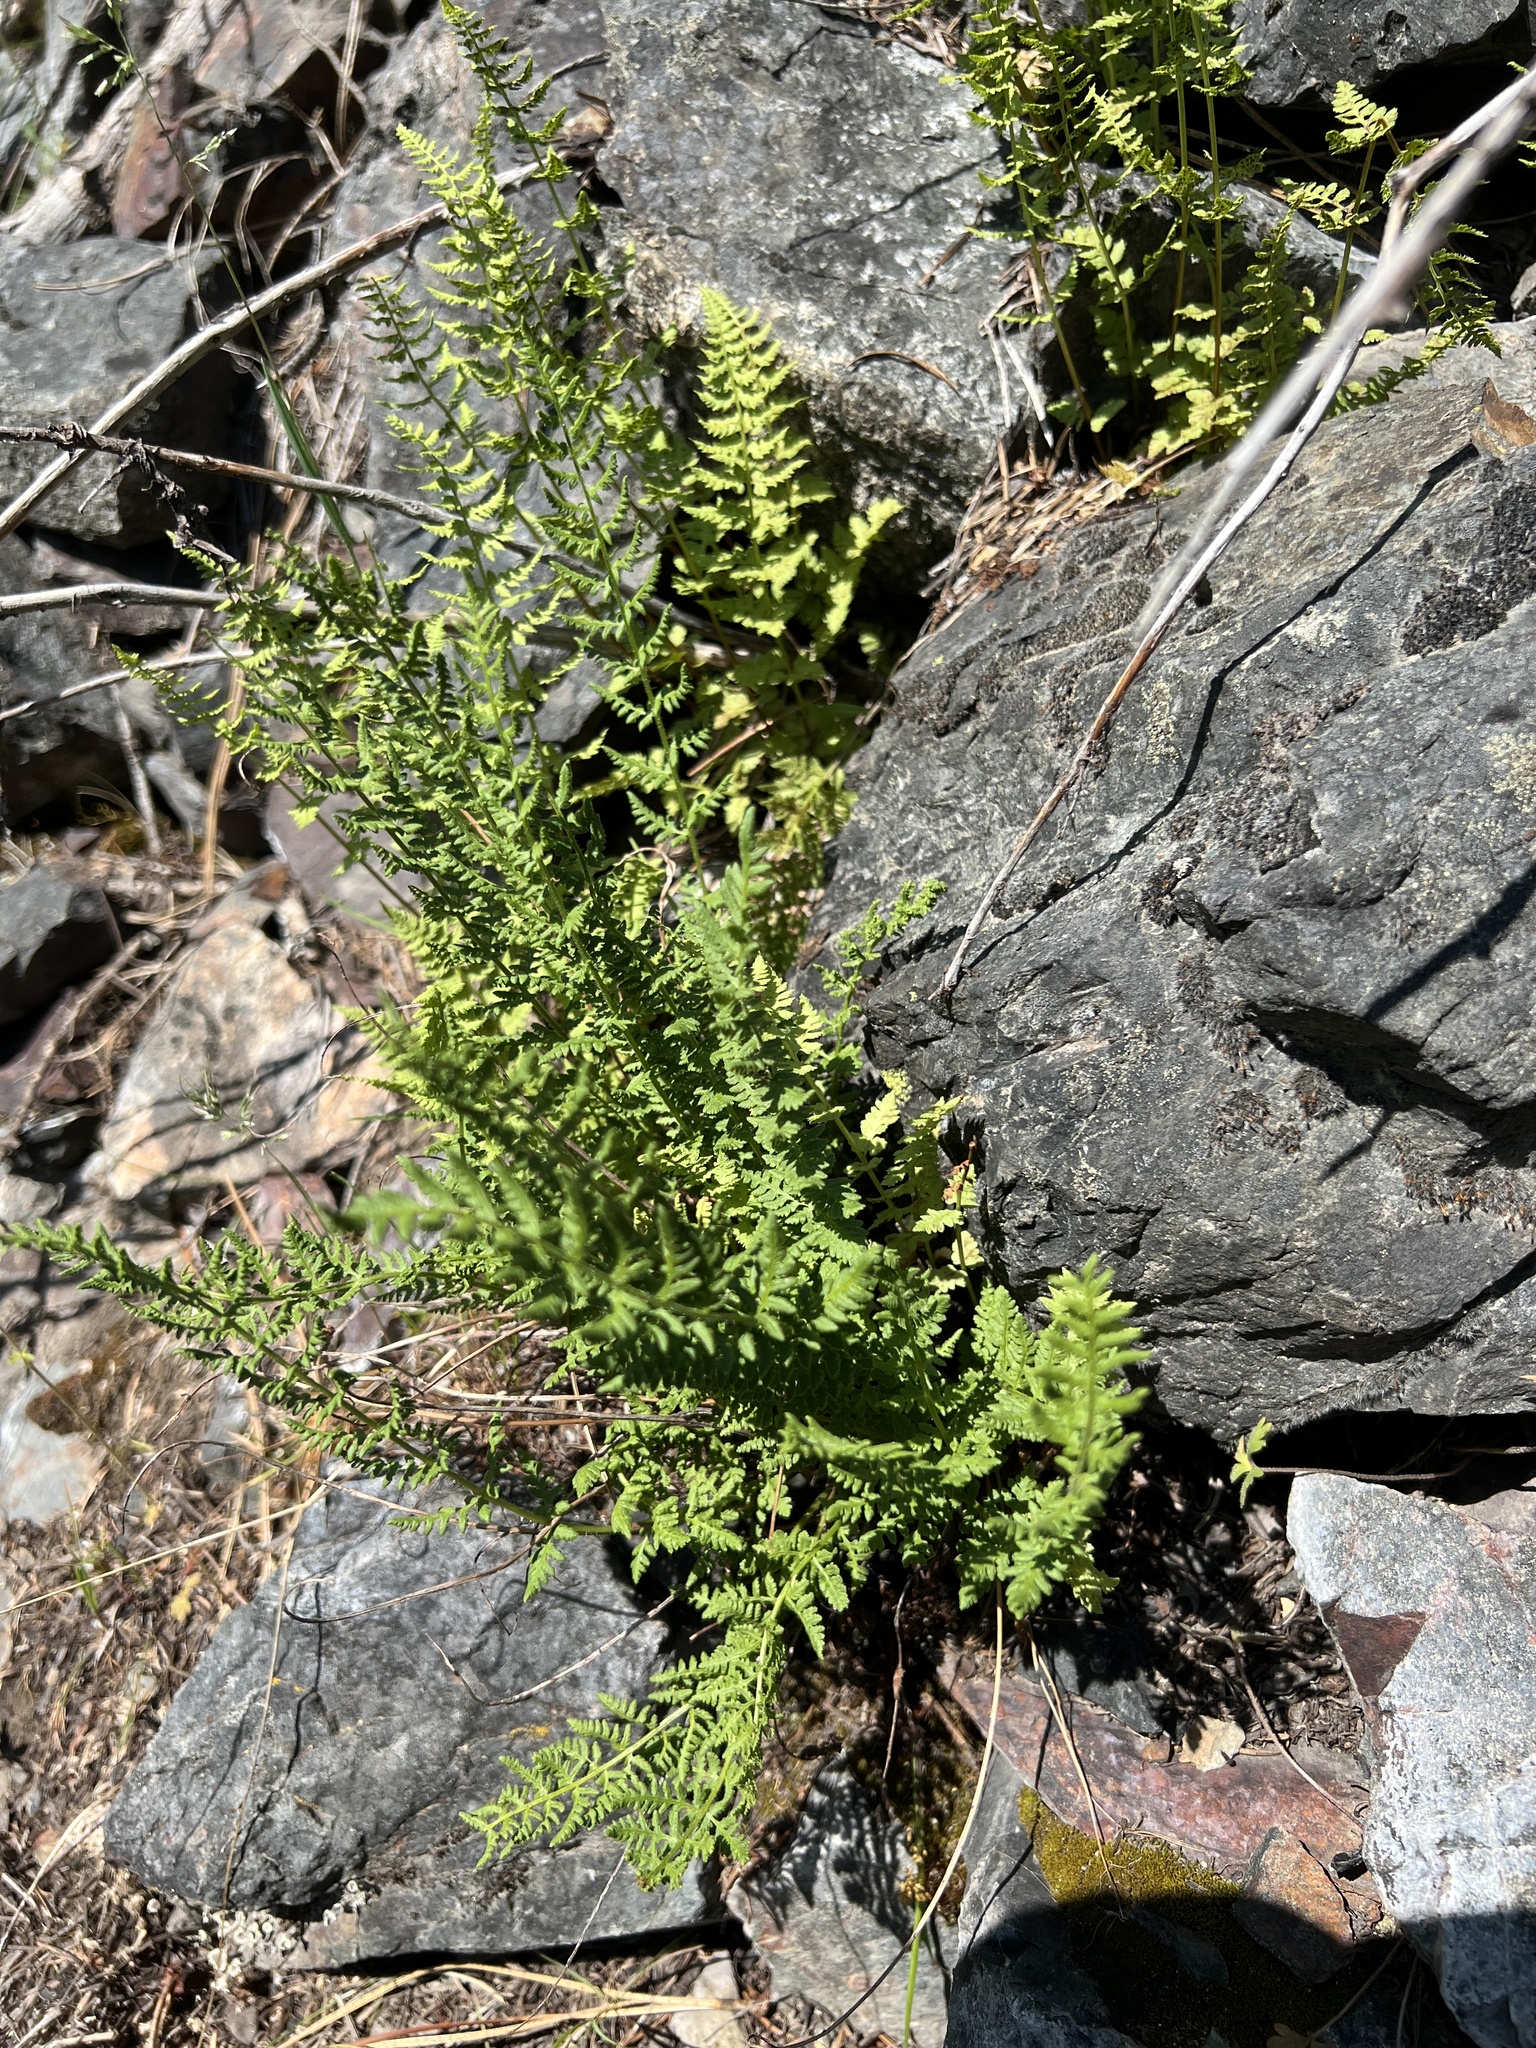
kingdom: Plantae
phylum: Tracheophyta
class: Polypodiopsida
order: Polypodiales
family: Woodsiaceae
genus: Physematium
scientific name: Physematium scopulinum
